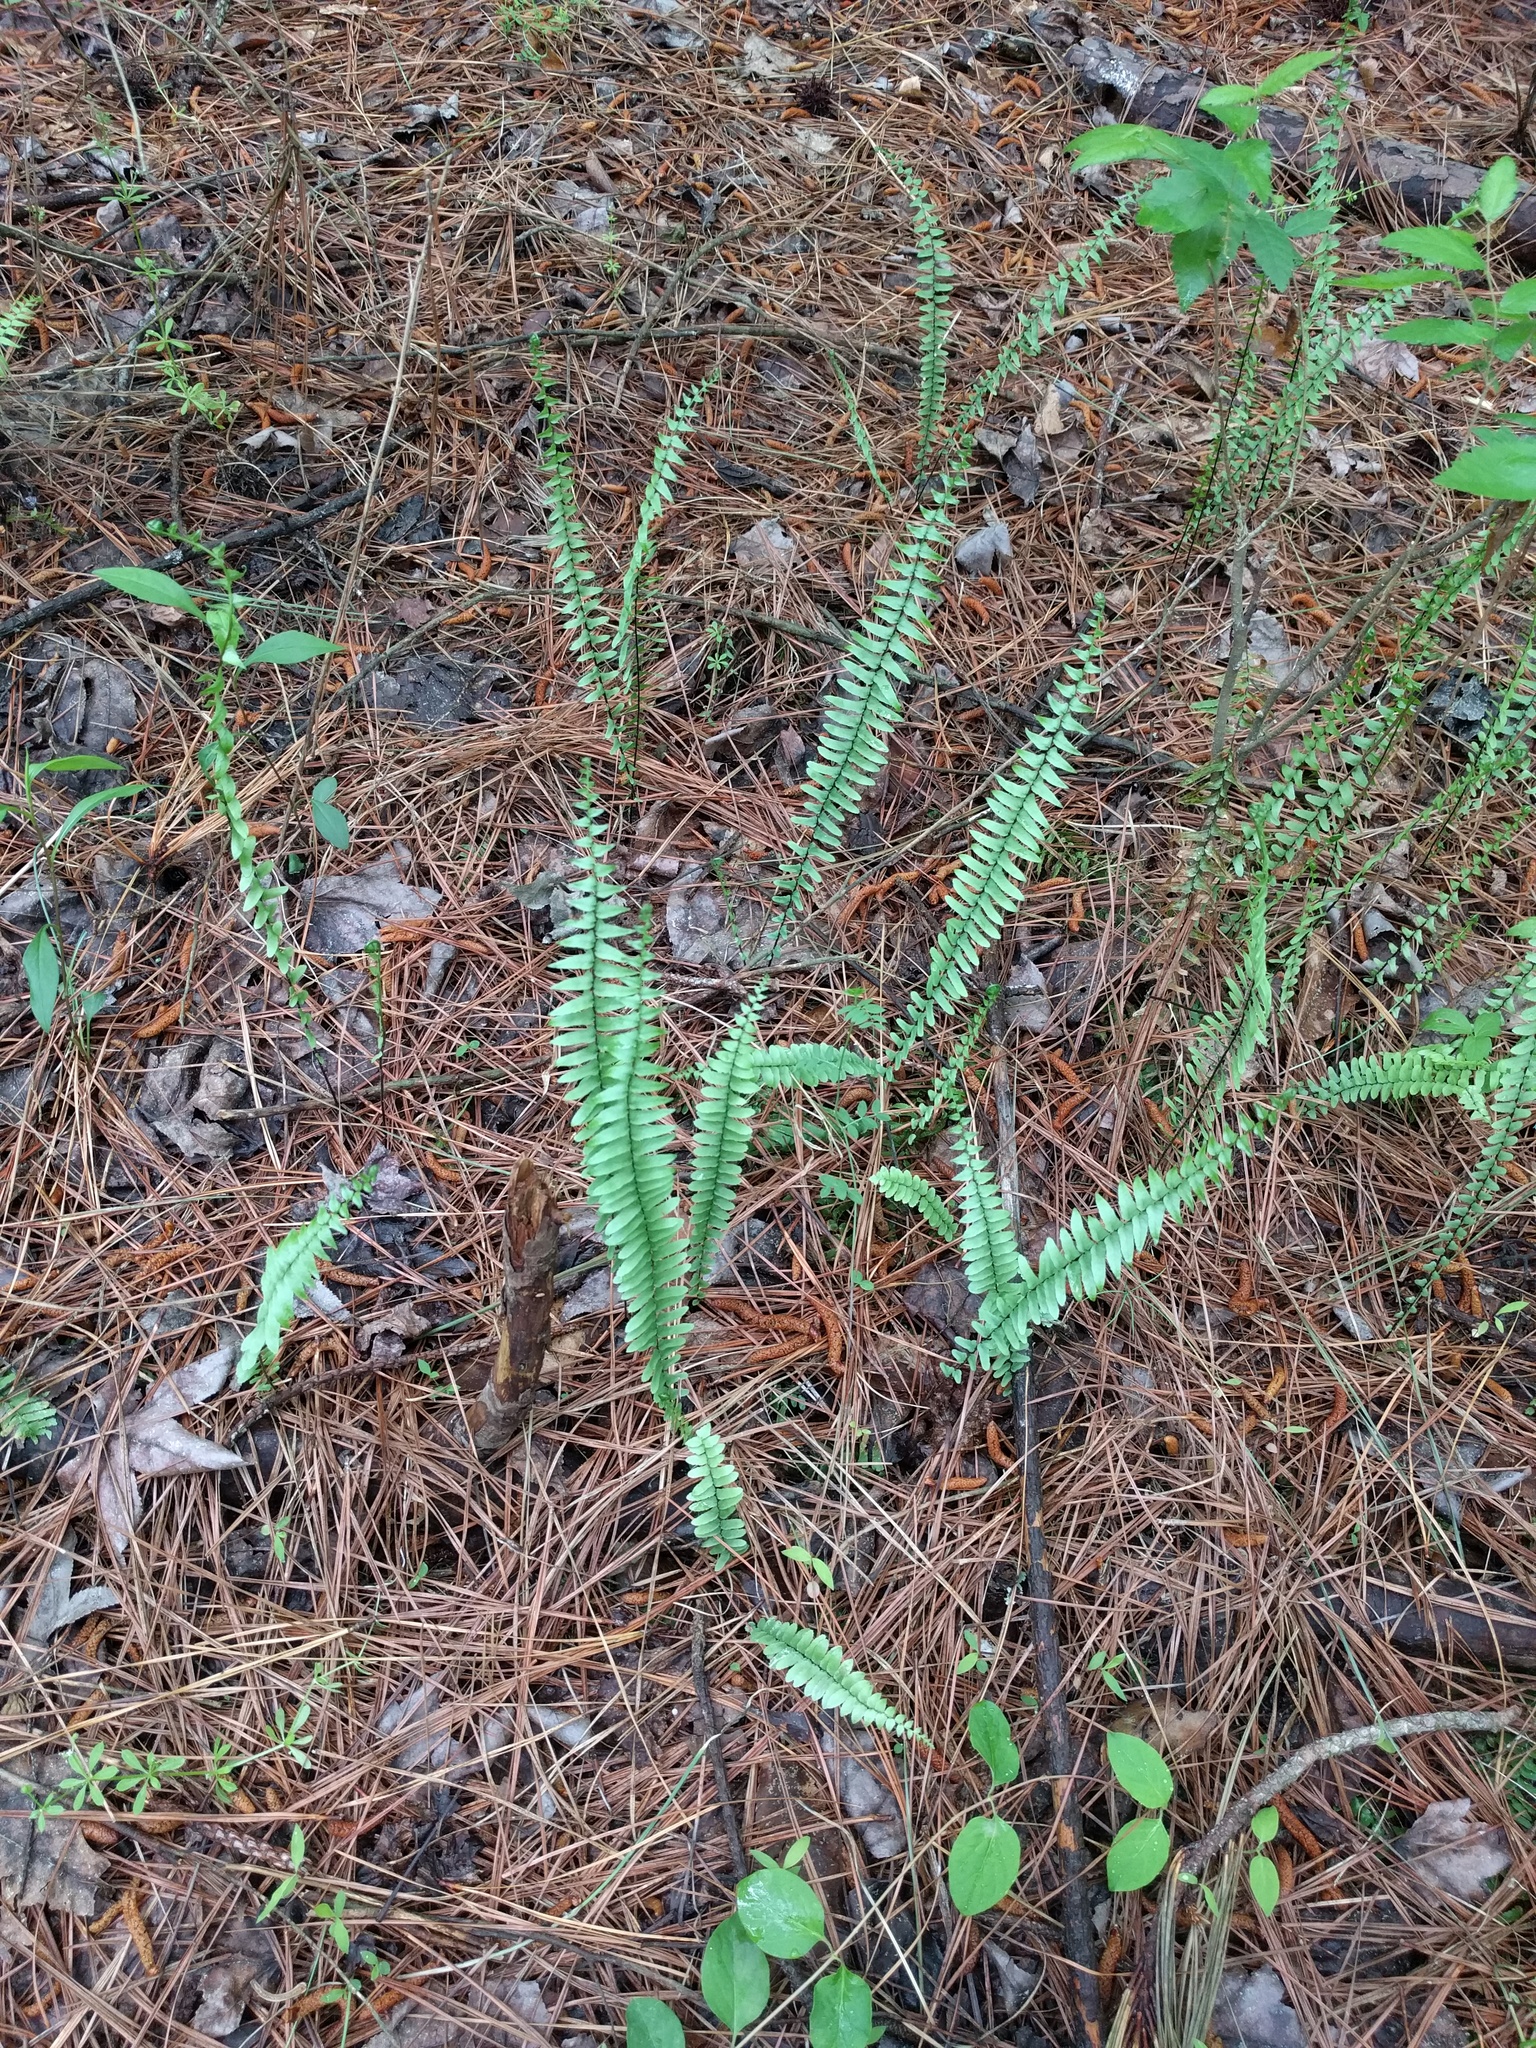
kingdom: Plantae
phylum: Tracheophyta
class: Polypodiopsida
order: Polypodiales
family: Aspleniaceae
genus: Asplenium
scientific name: Asplenium platyneuron
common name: Ebony spleenwort
